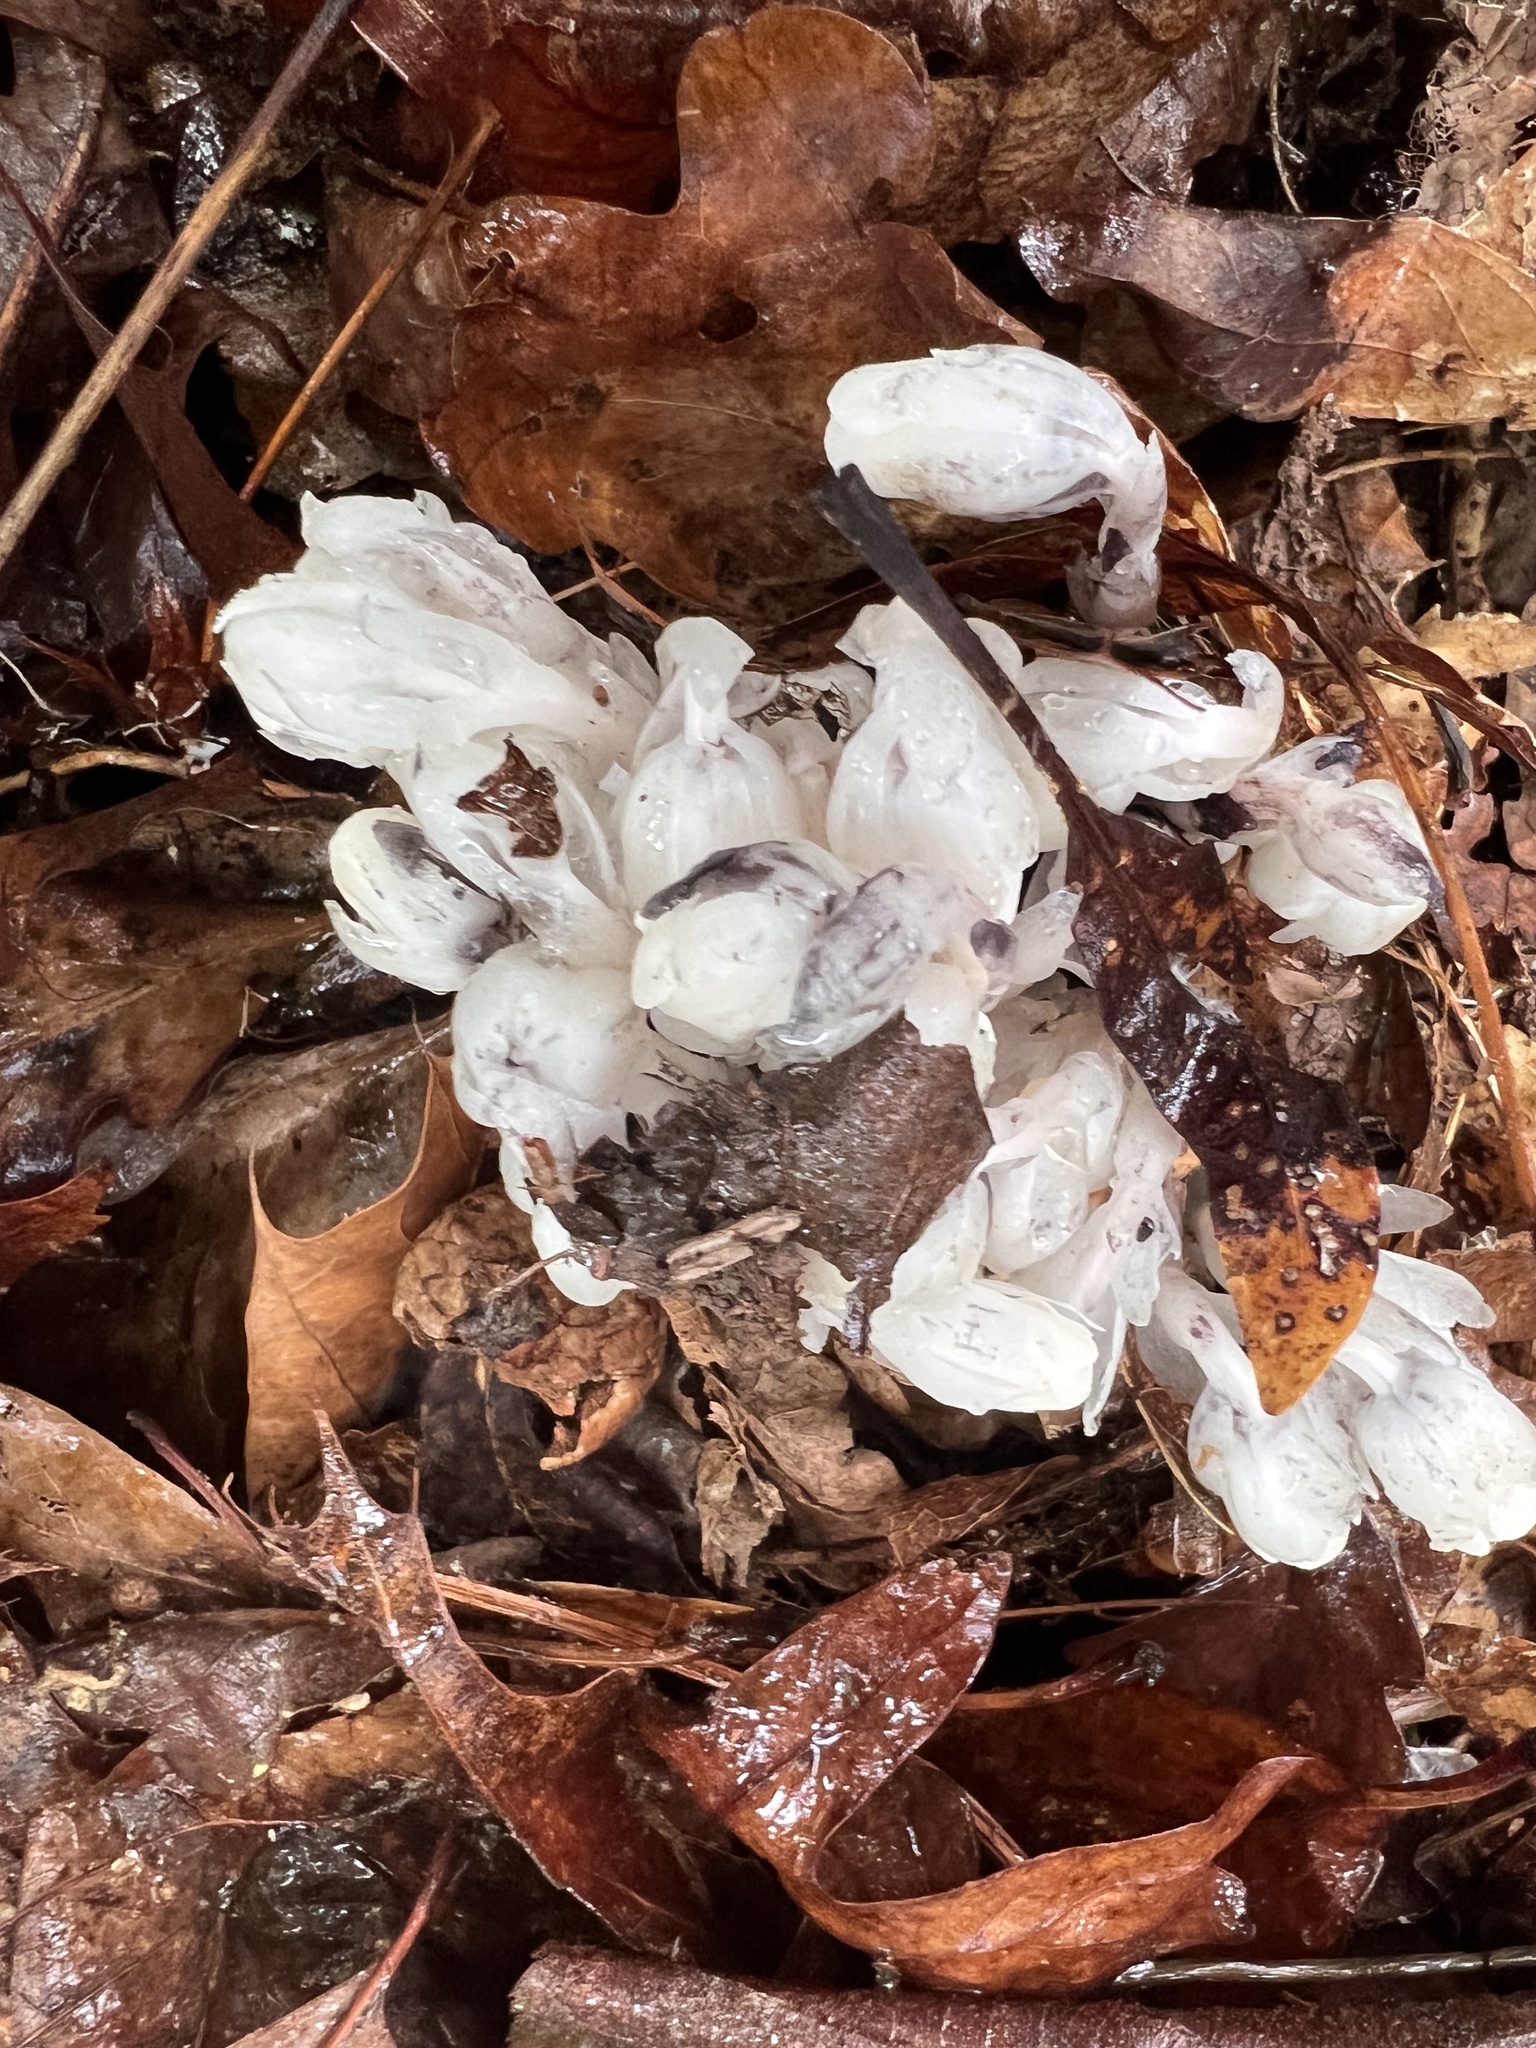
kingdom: Plantae
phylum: Tracheophyta
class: Magnoliopsida
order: Ericales
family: Ericaceae
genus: Monotropa
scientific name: Monotropa uniflora
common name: Convulsion root
